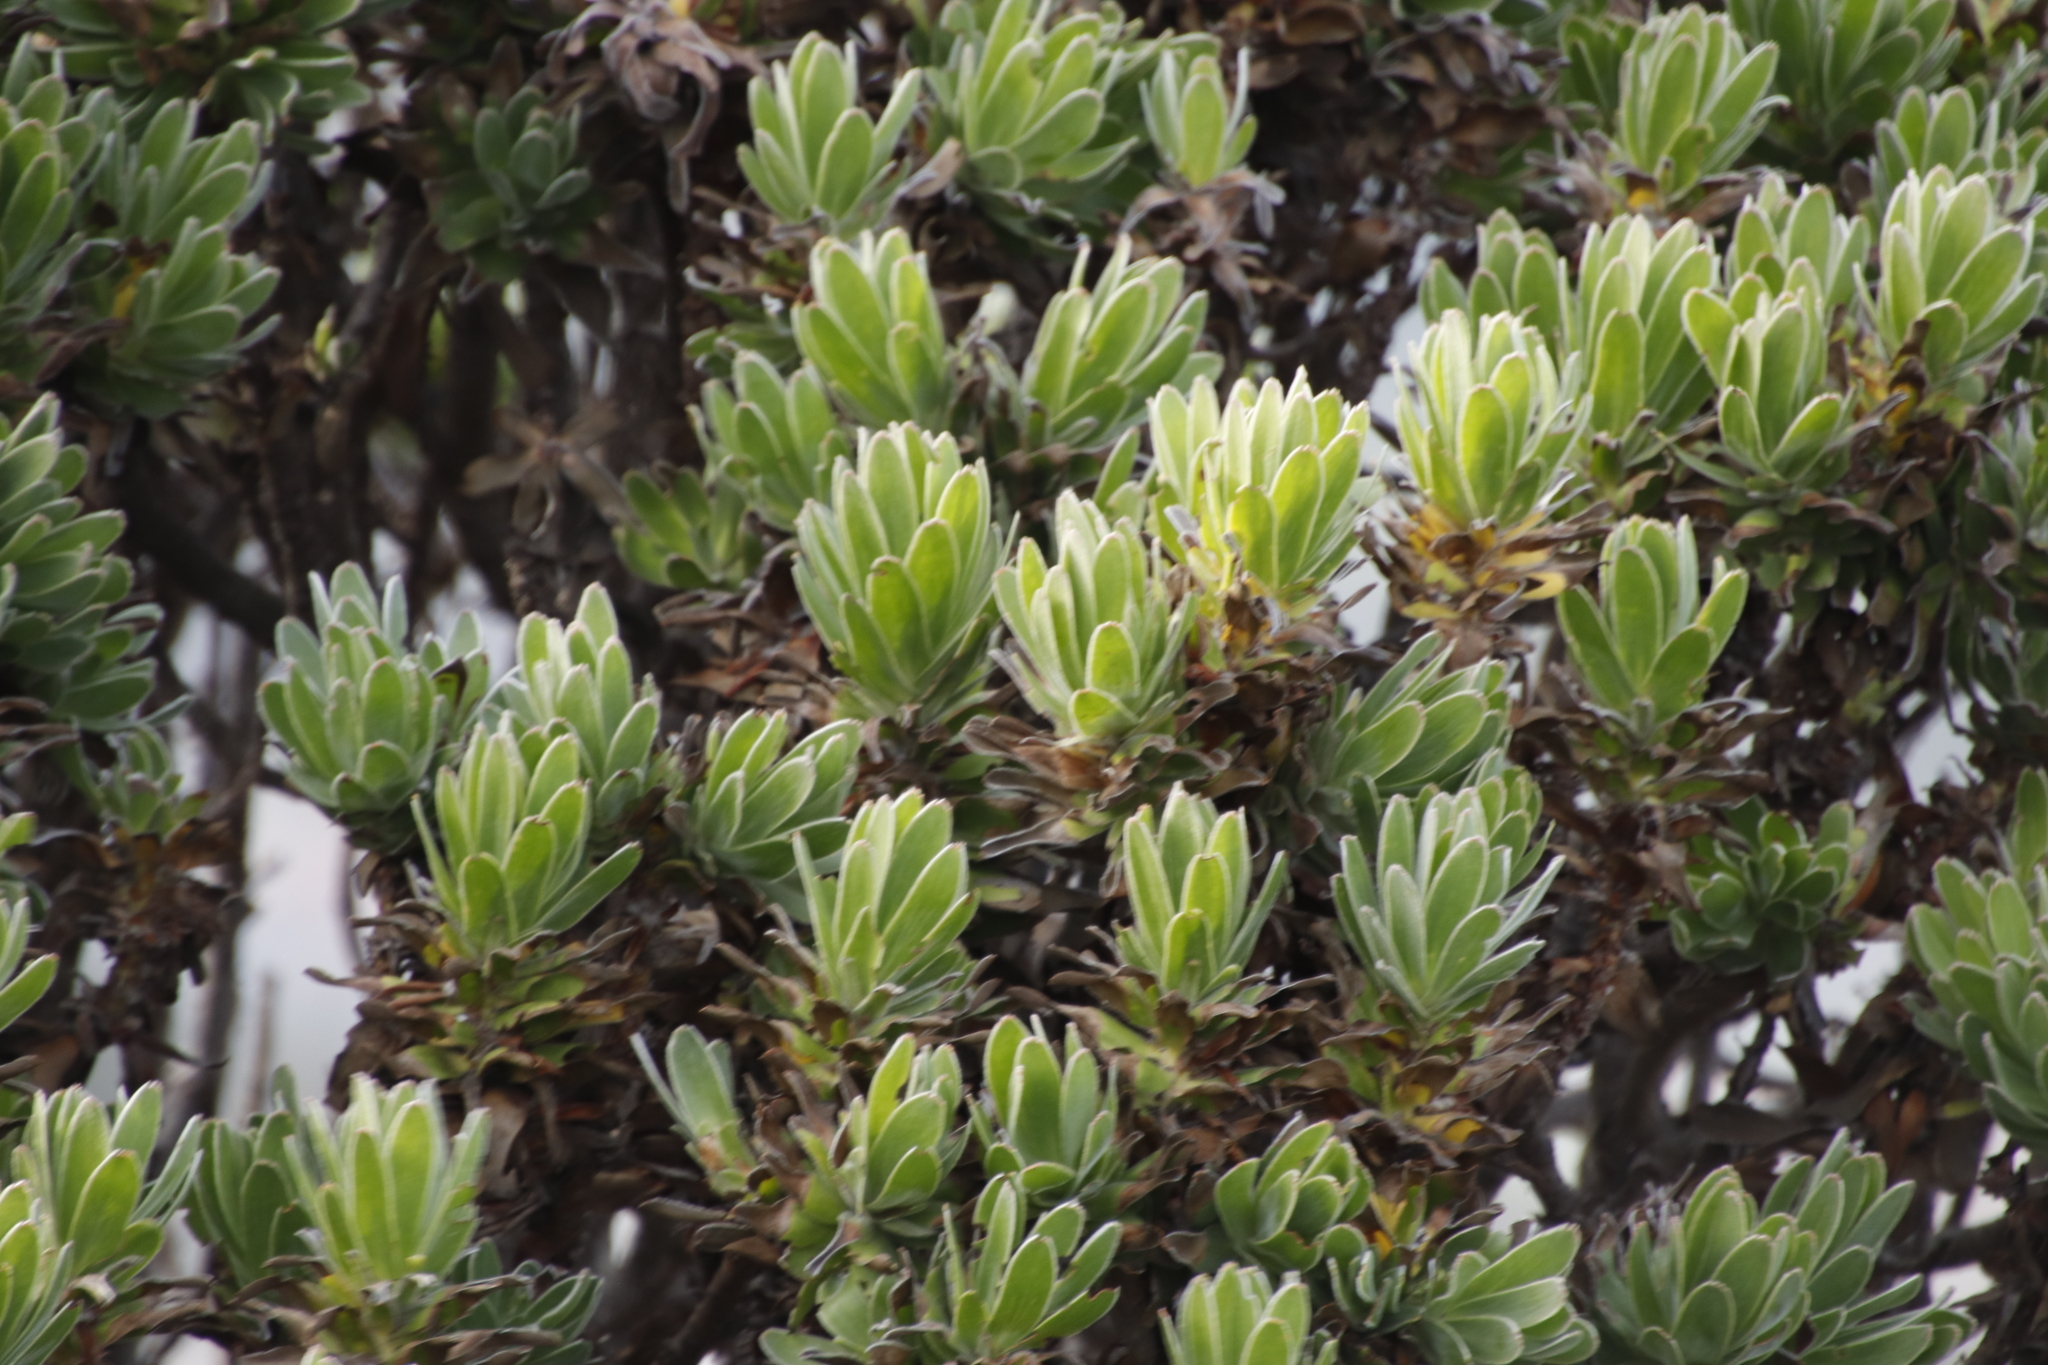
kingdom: Plantae
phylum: Tracheophyta
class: Magnoliopsida
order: Proteales
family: Proteaceae
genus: Mimetes
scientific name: Mimetes fimbriifolius
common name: Fringed bottlebrush
